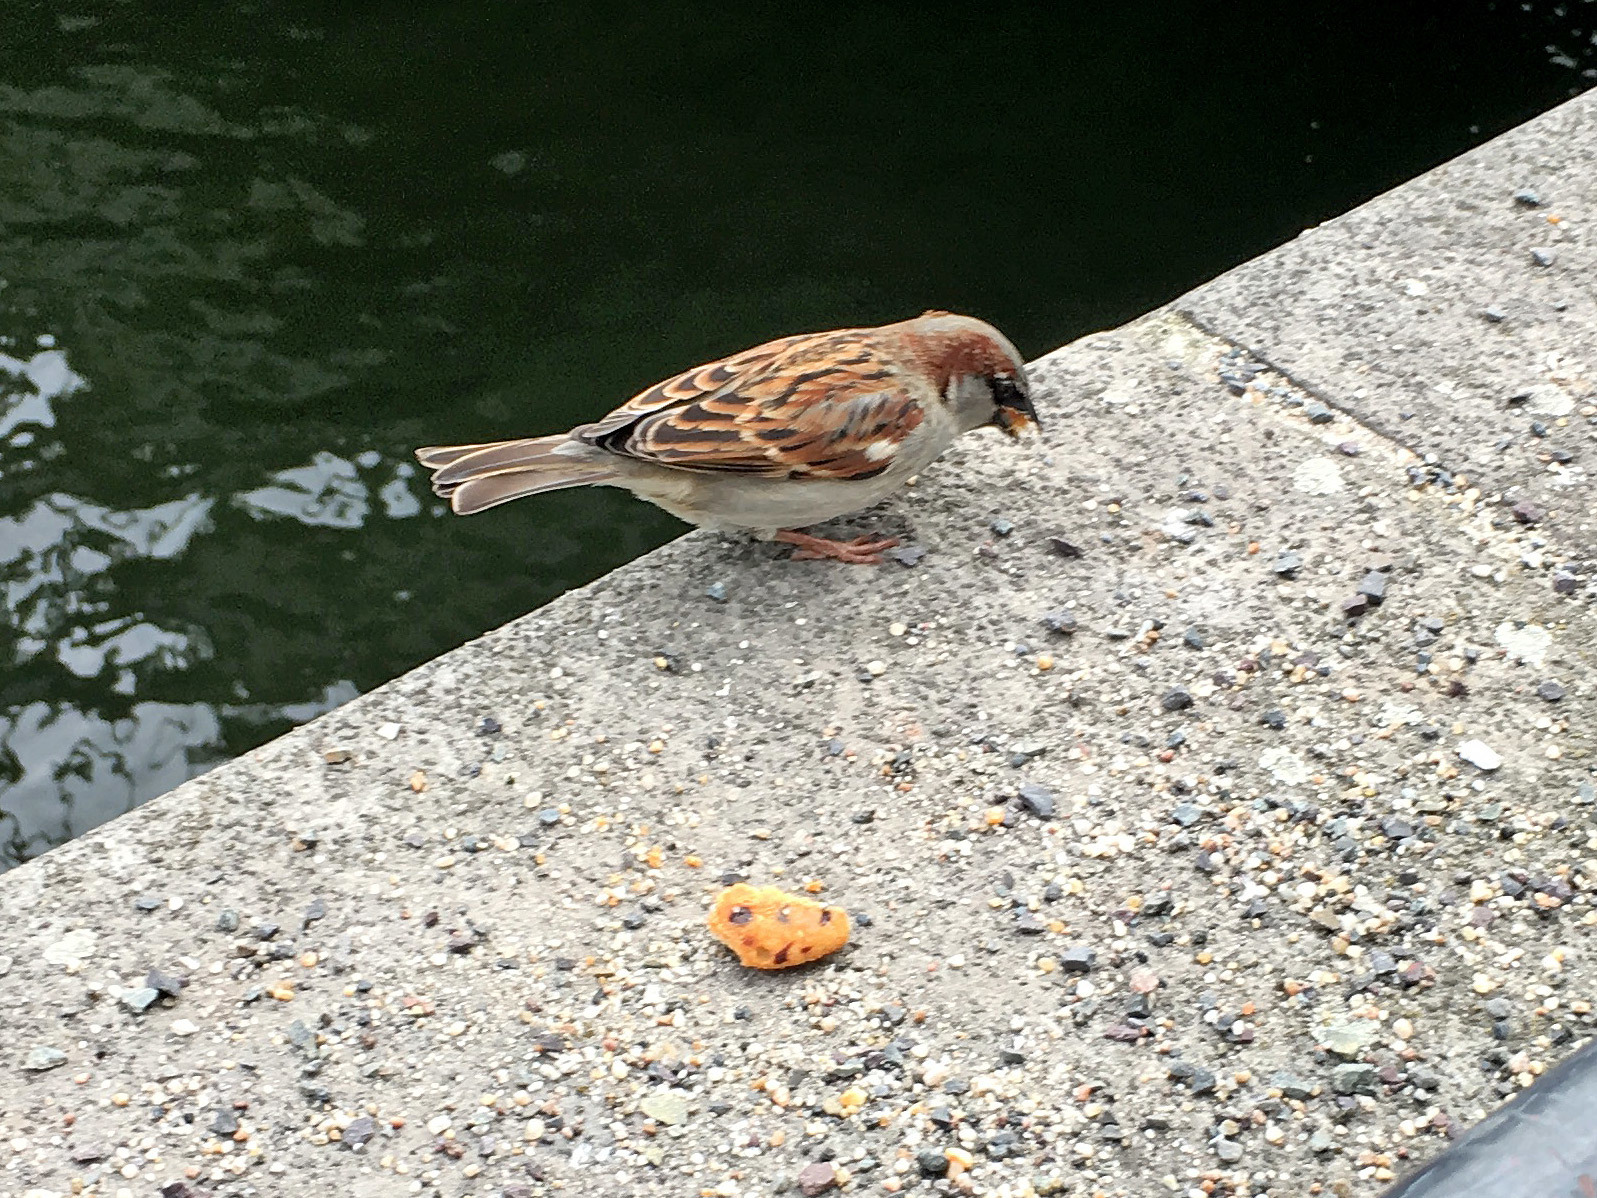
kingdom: Animalia
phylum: Chordata
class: Aves
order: Passeriformes
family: Passeridae
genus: Passer
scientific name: Passer domesticus
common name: House sparrow
